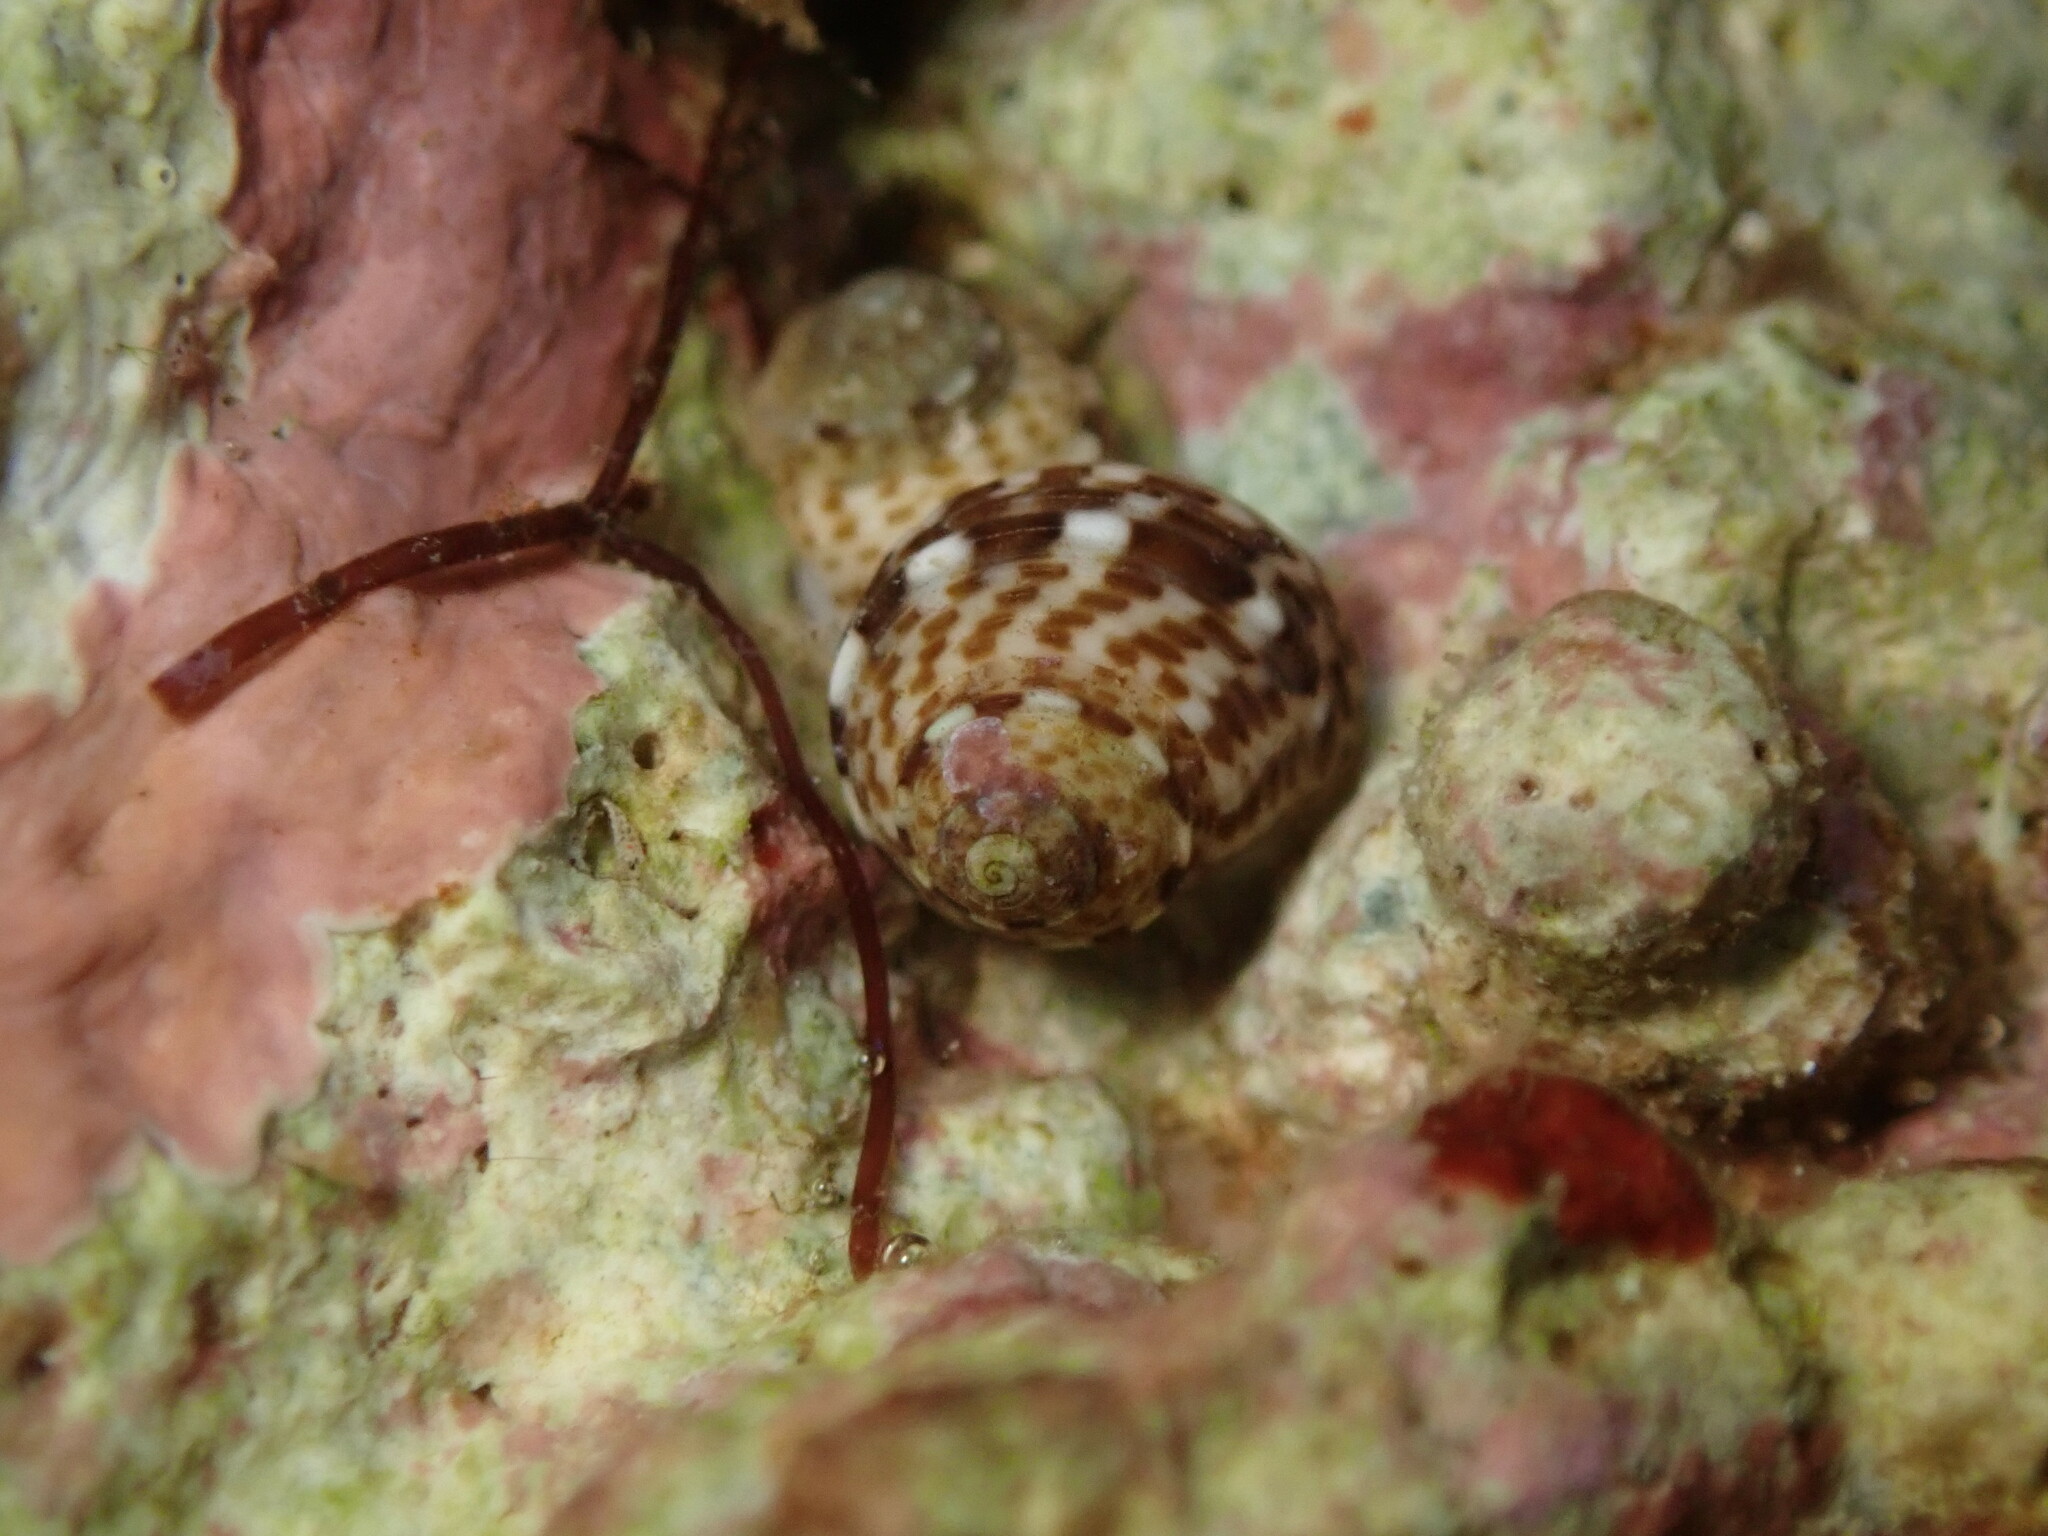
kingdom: Animalia
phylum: Mollusca
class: Gastropoda
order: Trochida
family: Colloniidae
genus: Homalopoma
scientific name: Homalopoma verruca
